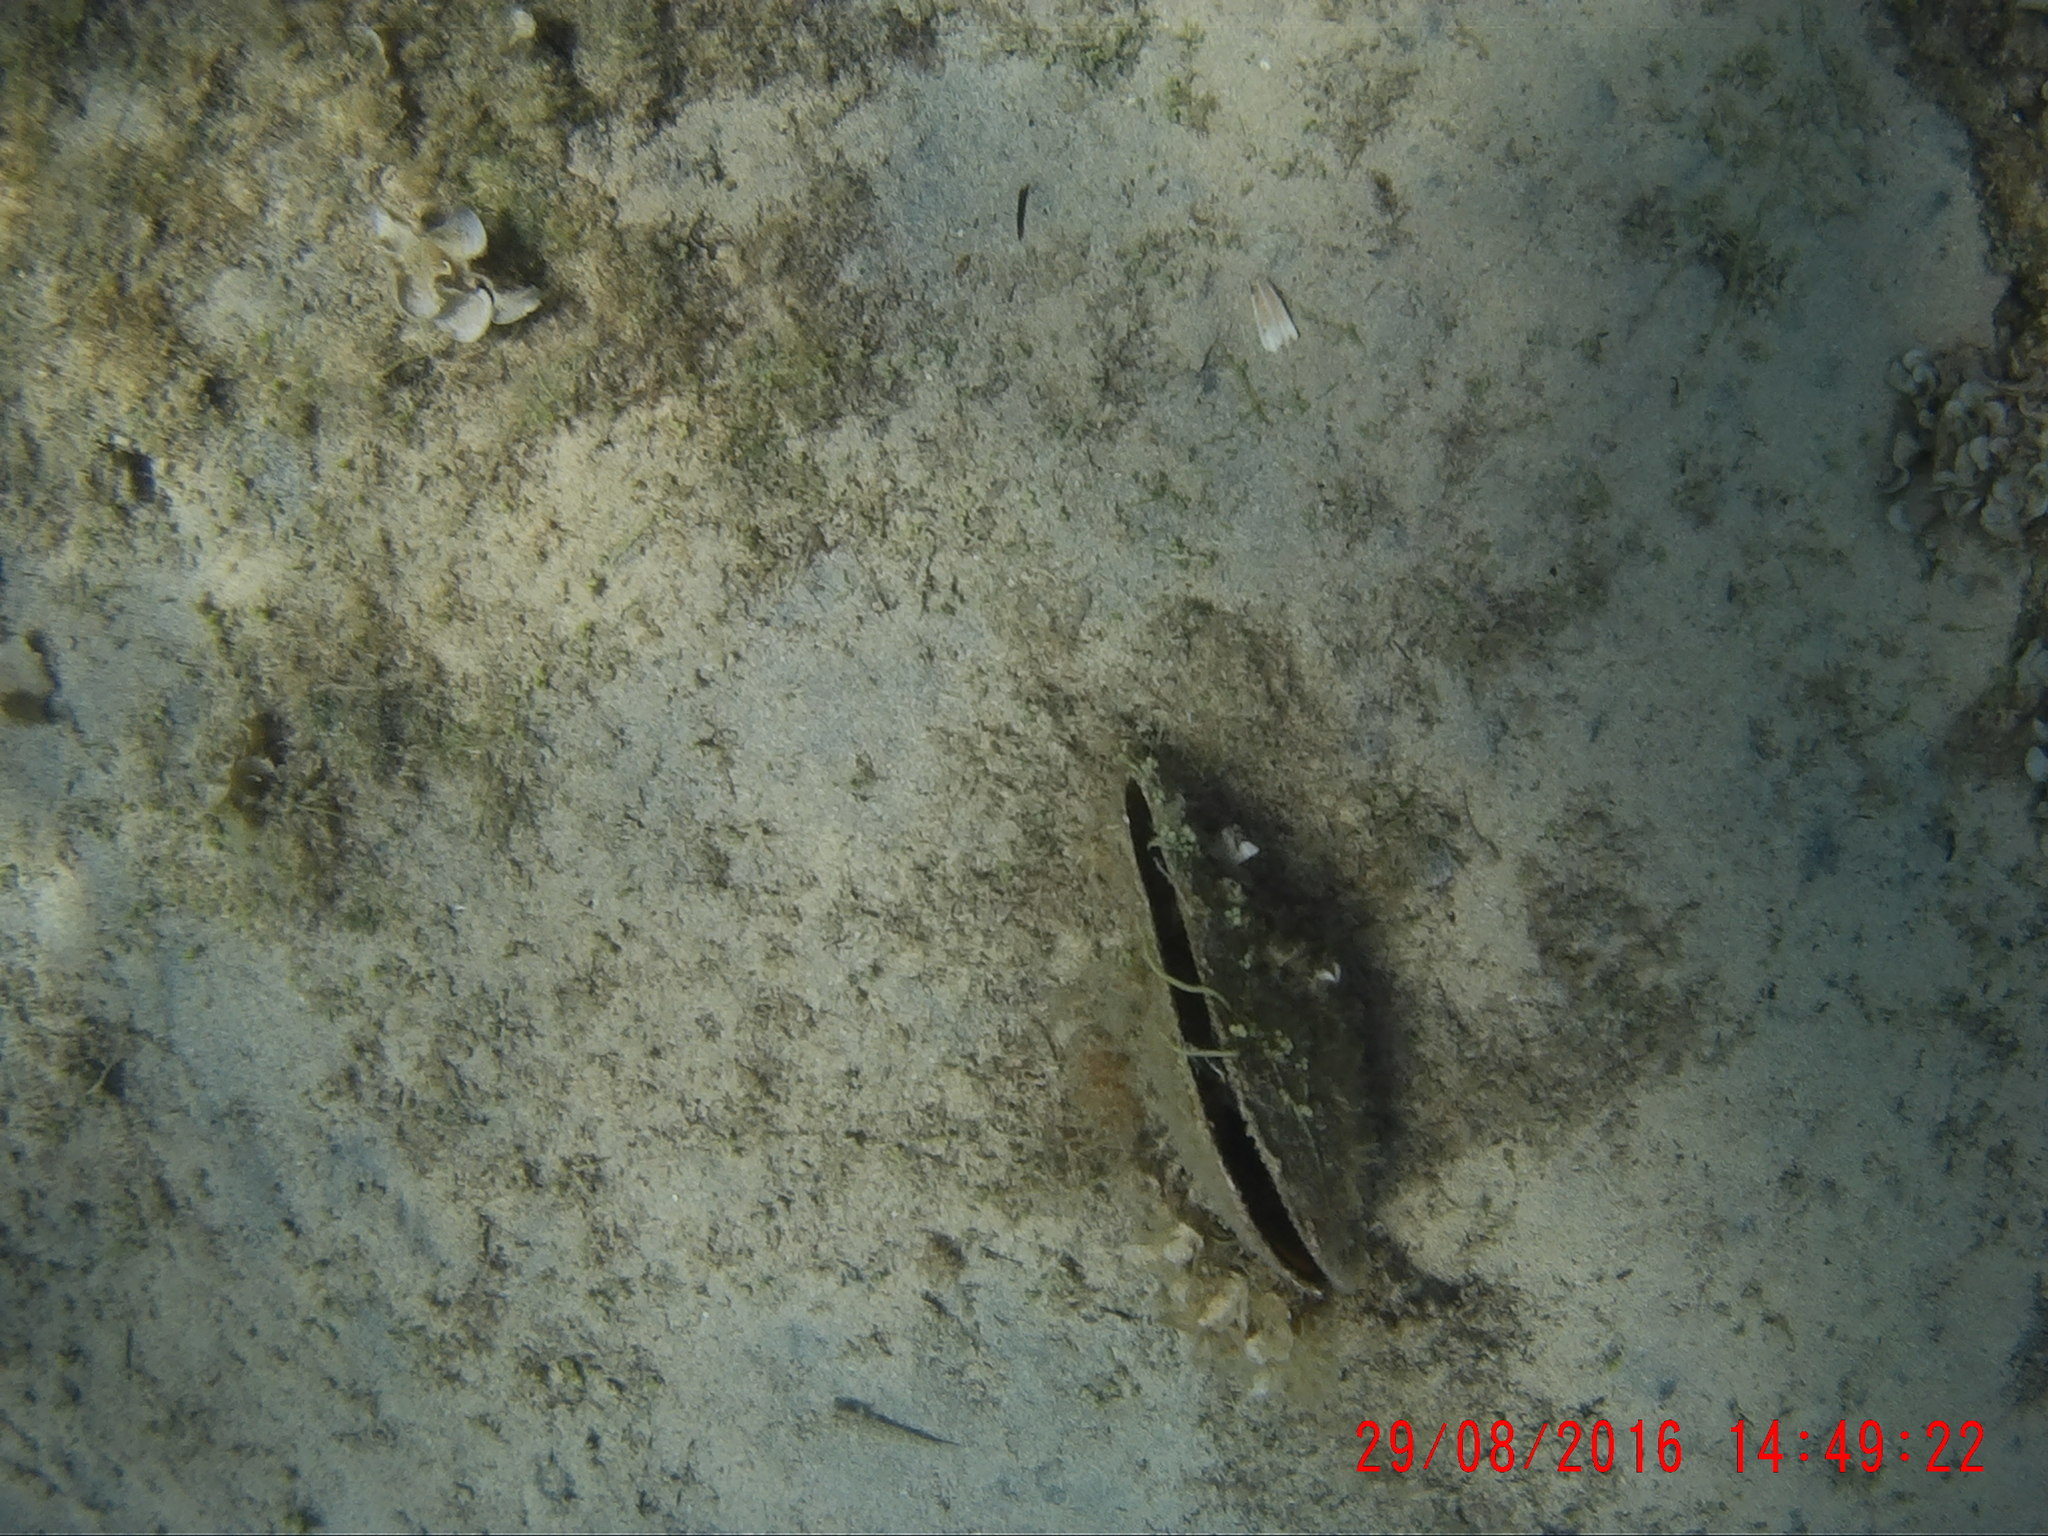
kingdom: Animalia
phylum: Mollusca
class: Bivalvia
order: Ostreida
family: Pinnidae
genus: Pinna
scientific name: Pinna nobilis
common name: Fan mussel
